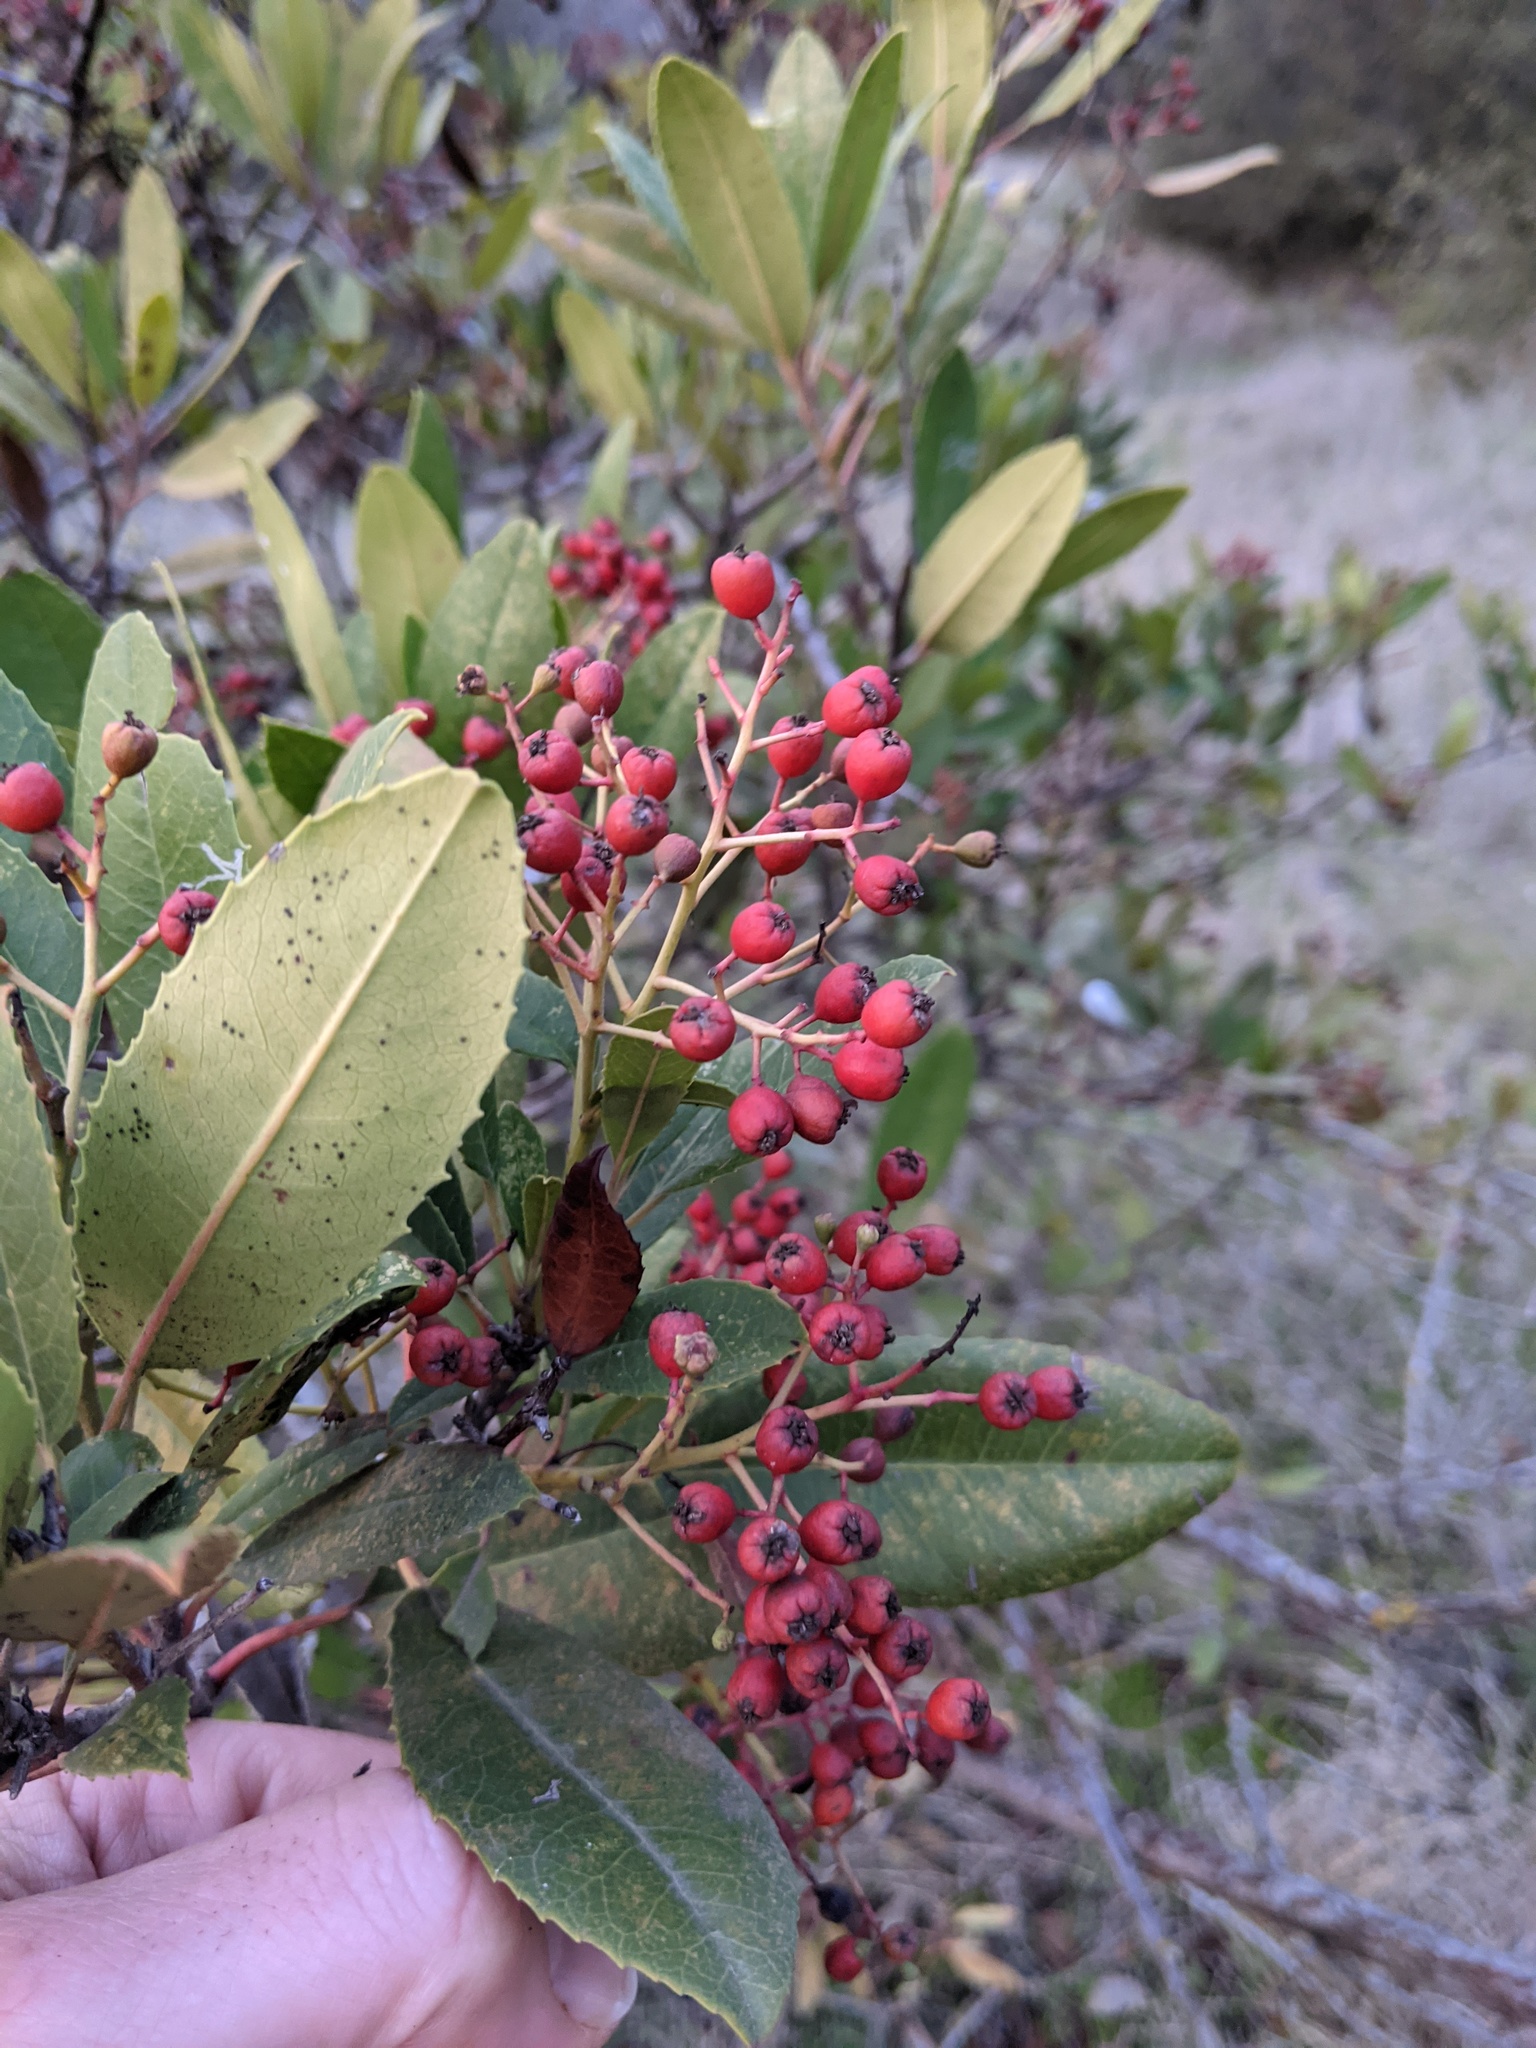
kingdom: Plantae
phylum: Tracheophyta
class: Magnoliopsida
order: Rosales
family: Rosaceae
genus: Heteromeles
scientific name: Heteromeles arbutifolia
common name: California-holly
